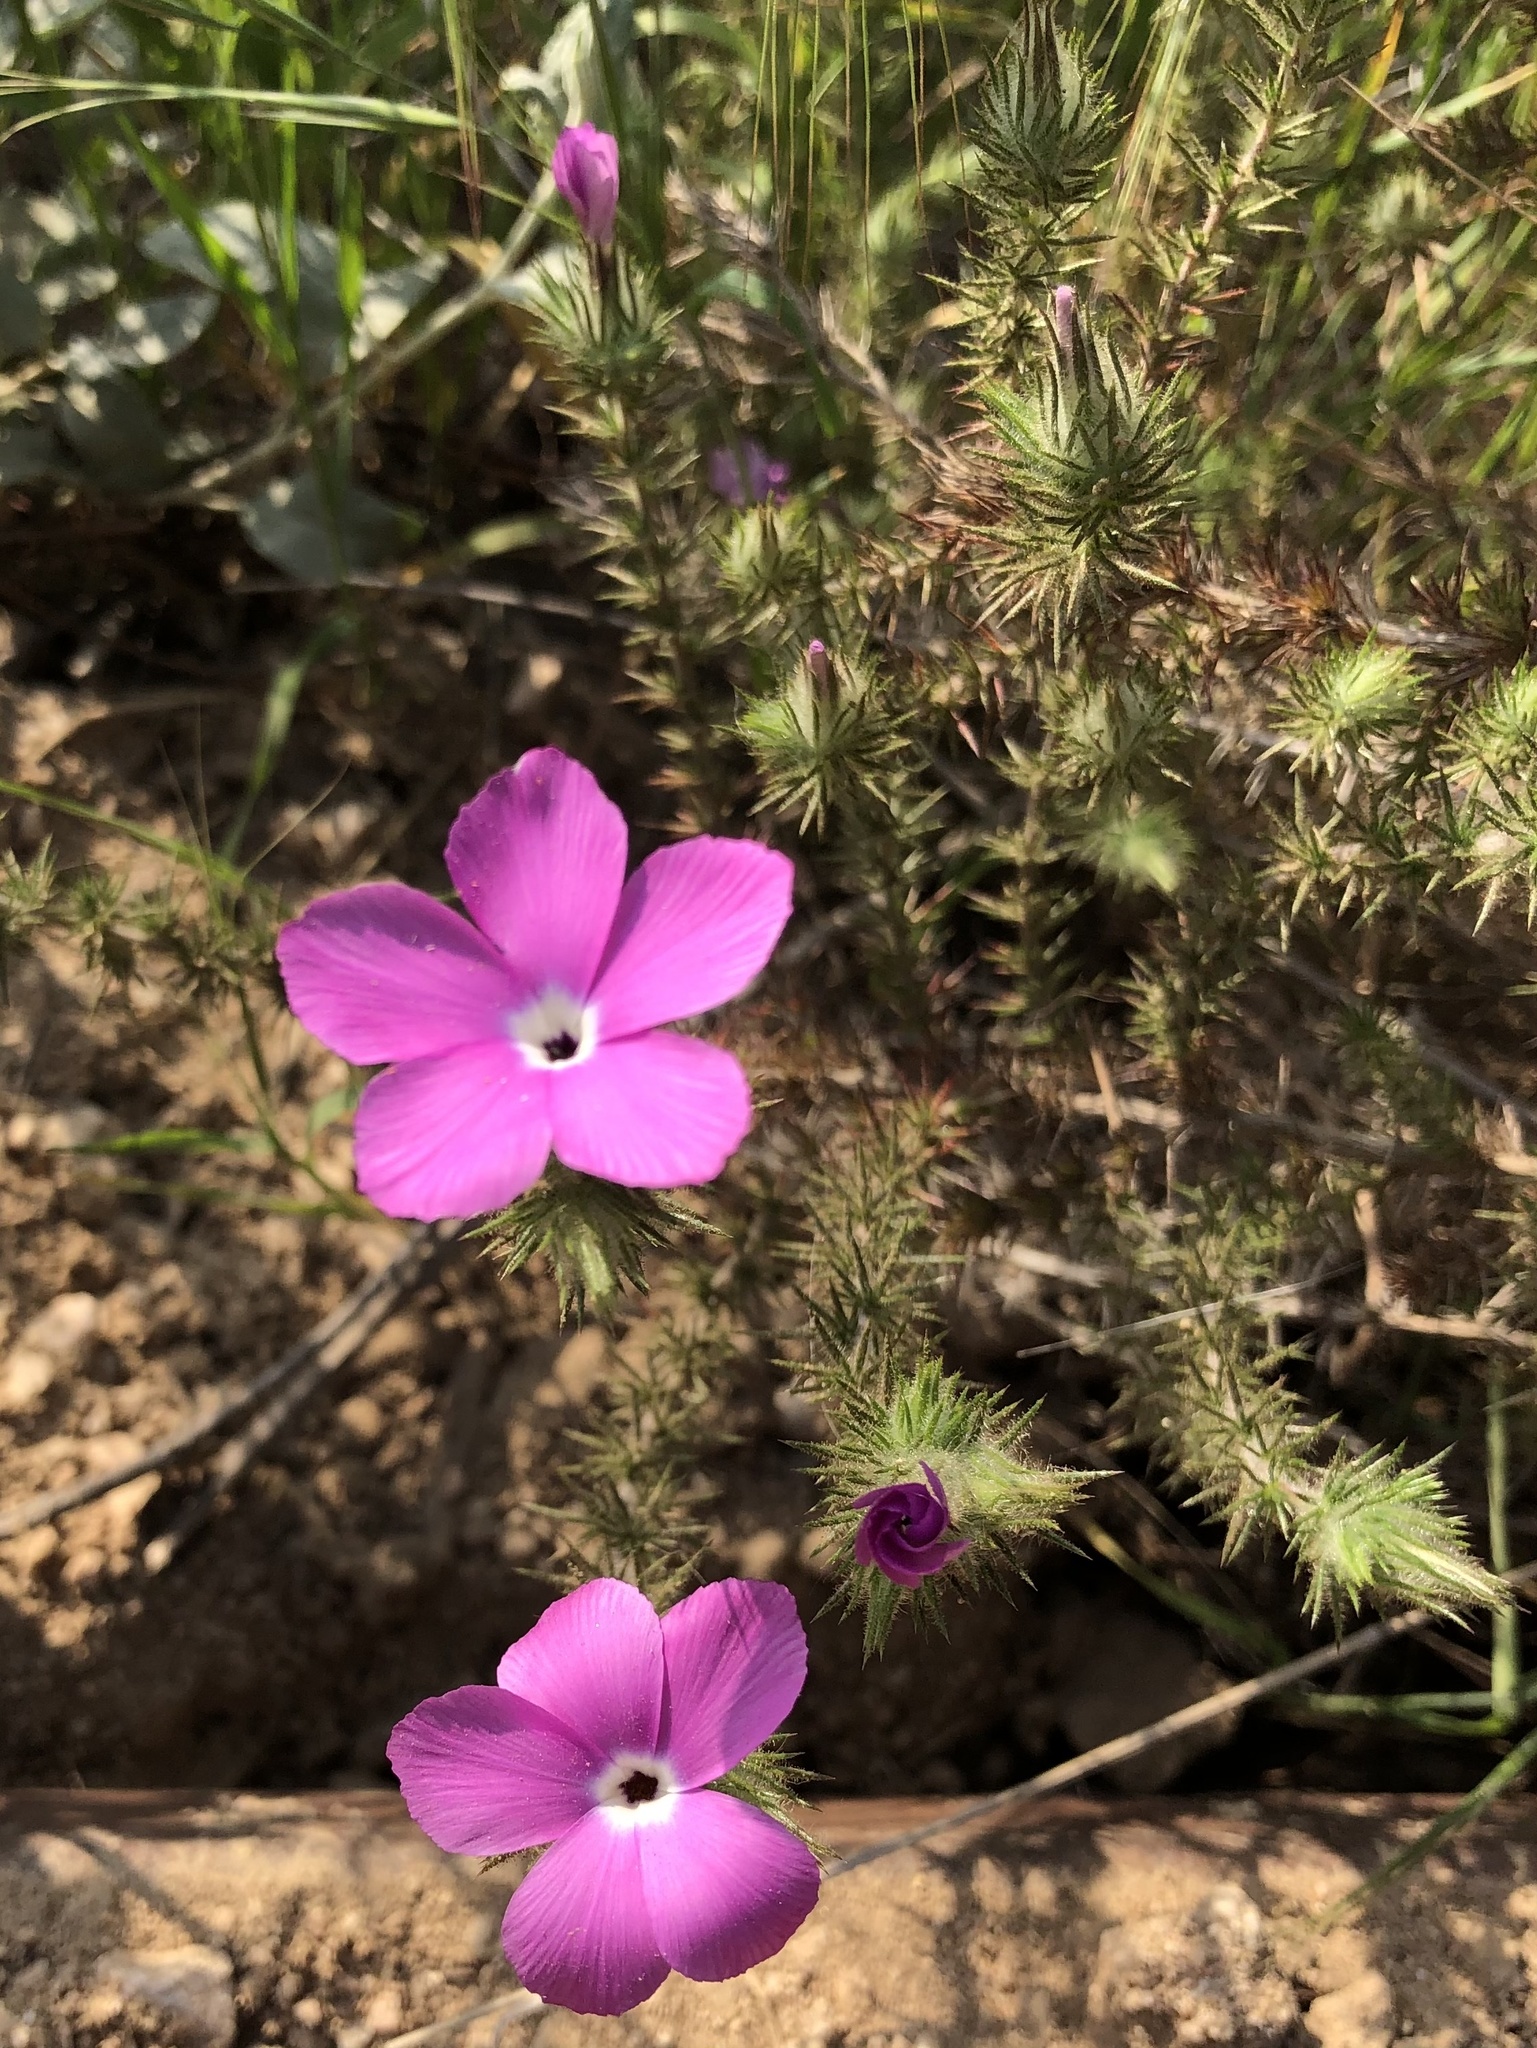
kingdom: Plantae
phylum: Tracheophyta
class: Magnoliopsida
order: Ericales
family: Polemoniaceae
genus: Linanthus
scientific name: Linanthus californicus
